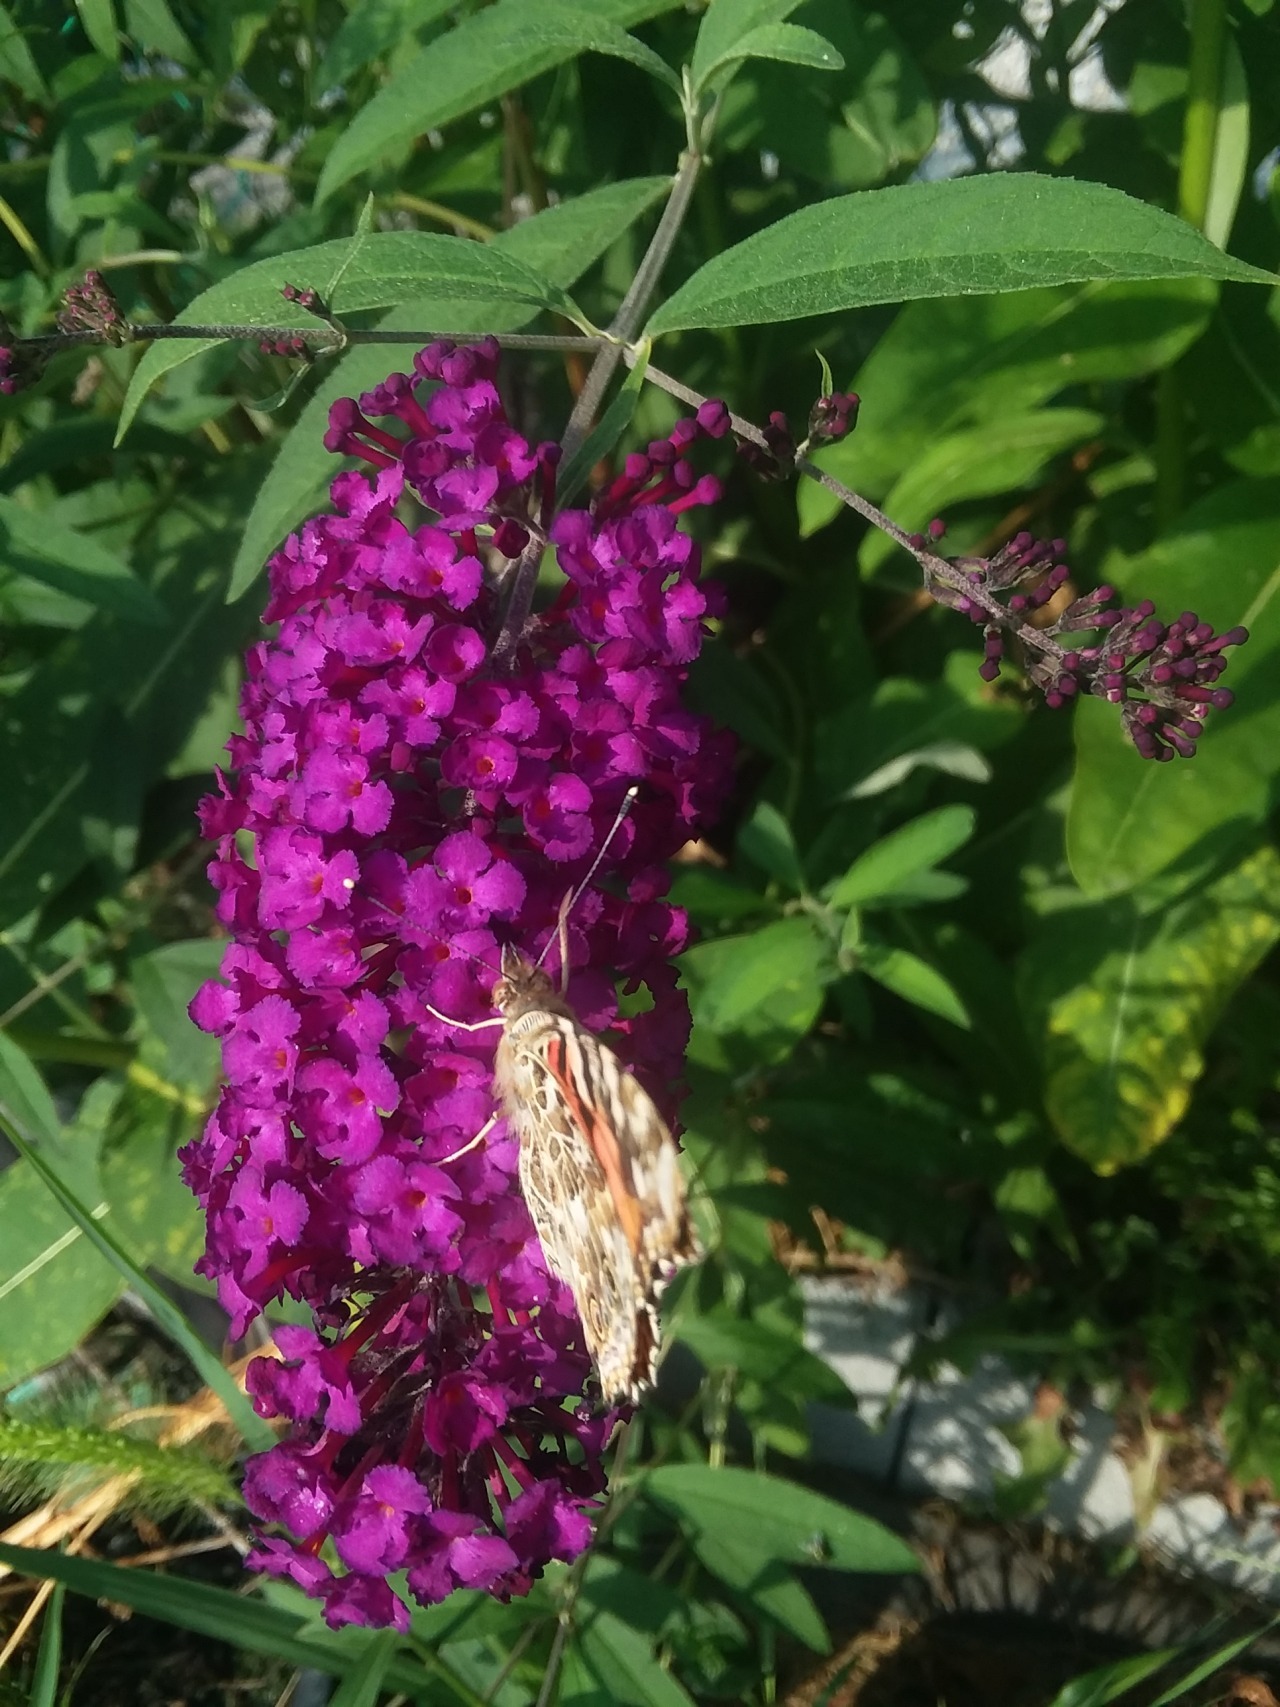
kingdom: Animalia
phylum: Arthropoda
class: Insecta
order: Lepidoptera
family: Nymphalidae
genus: Vanessa
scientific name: Vanessa cardui
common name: Painted lady
